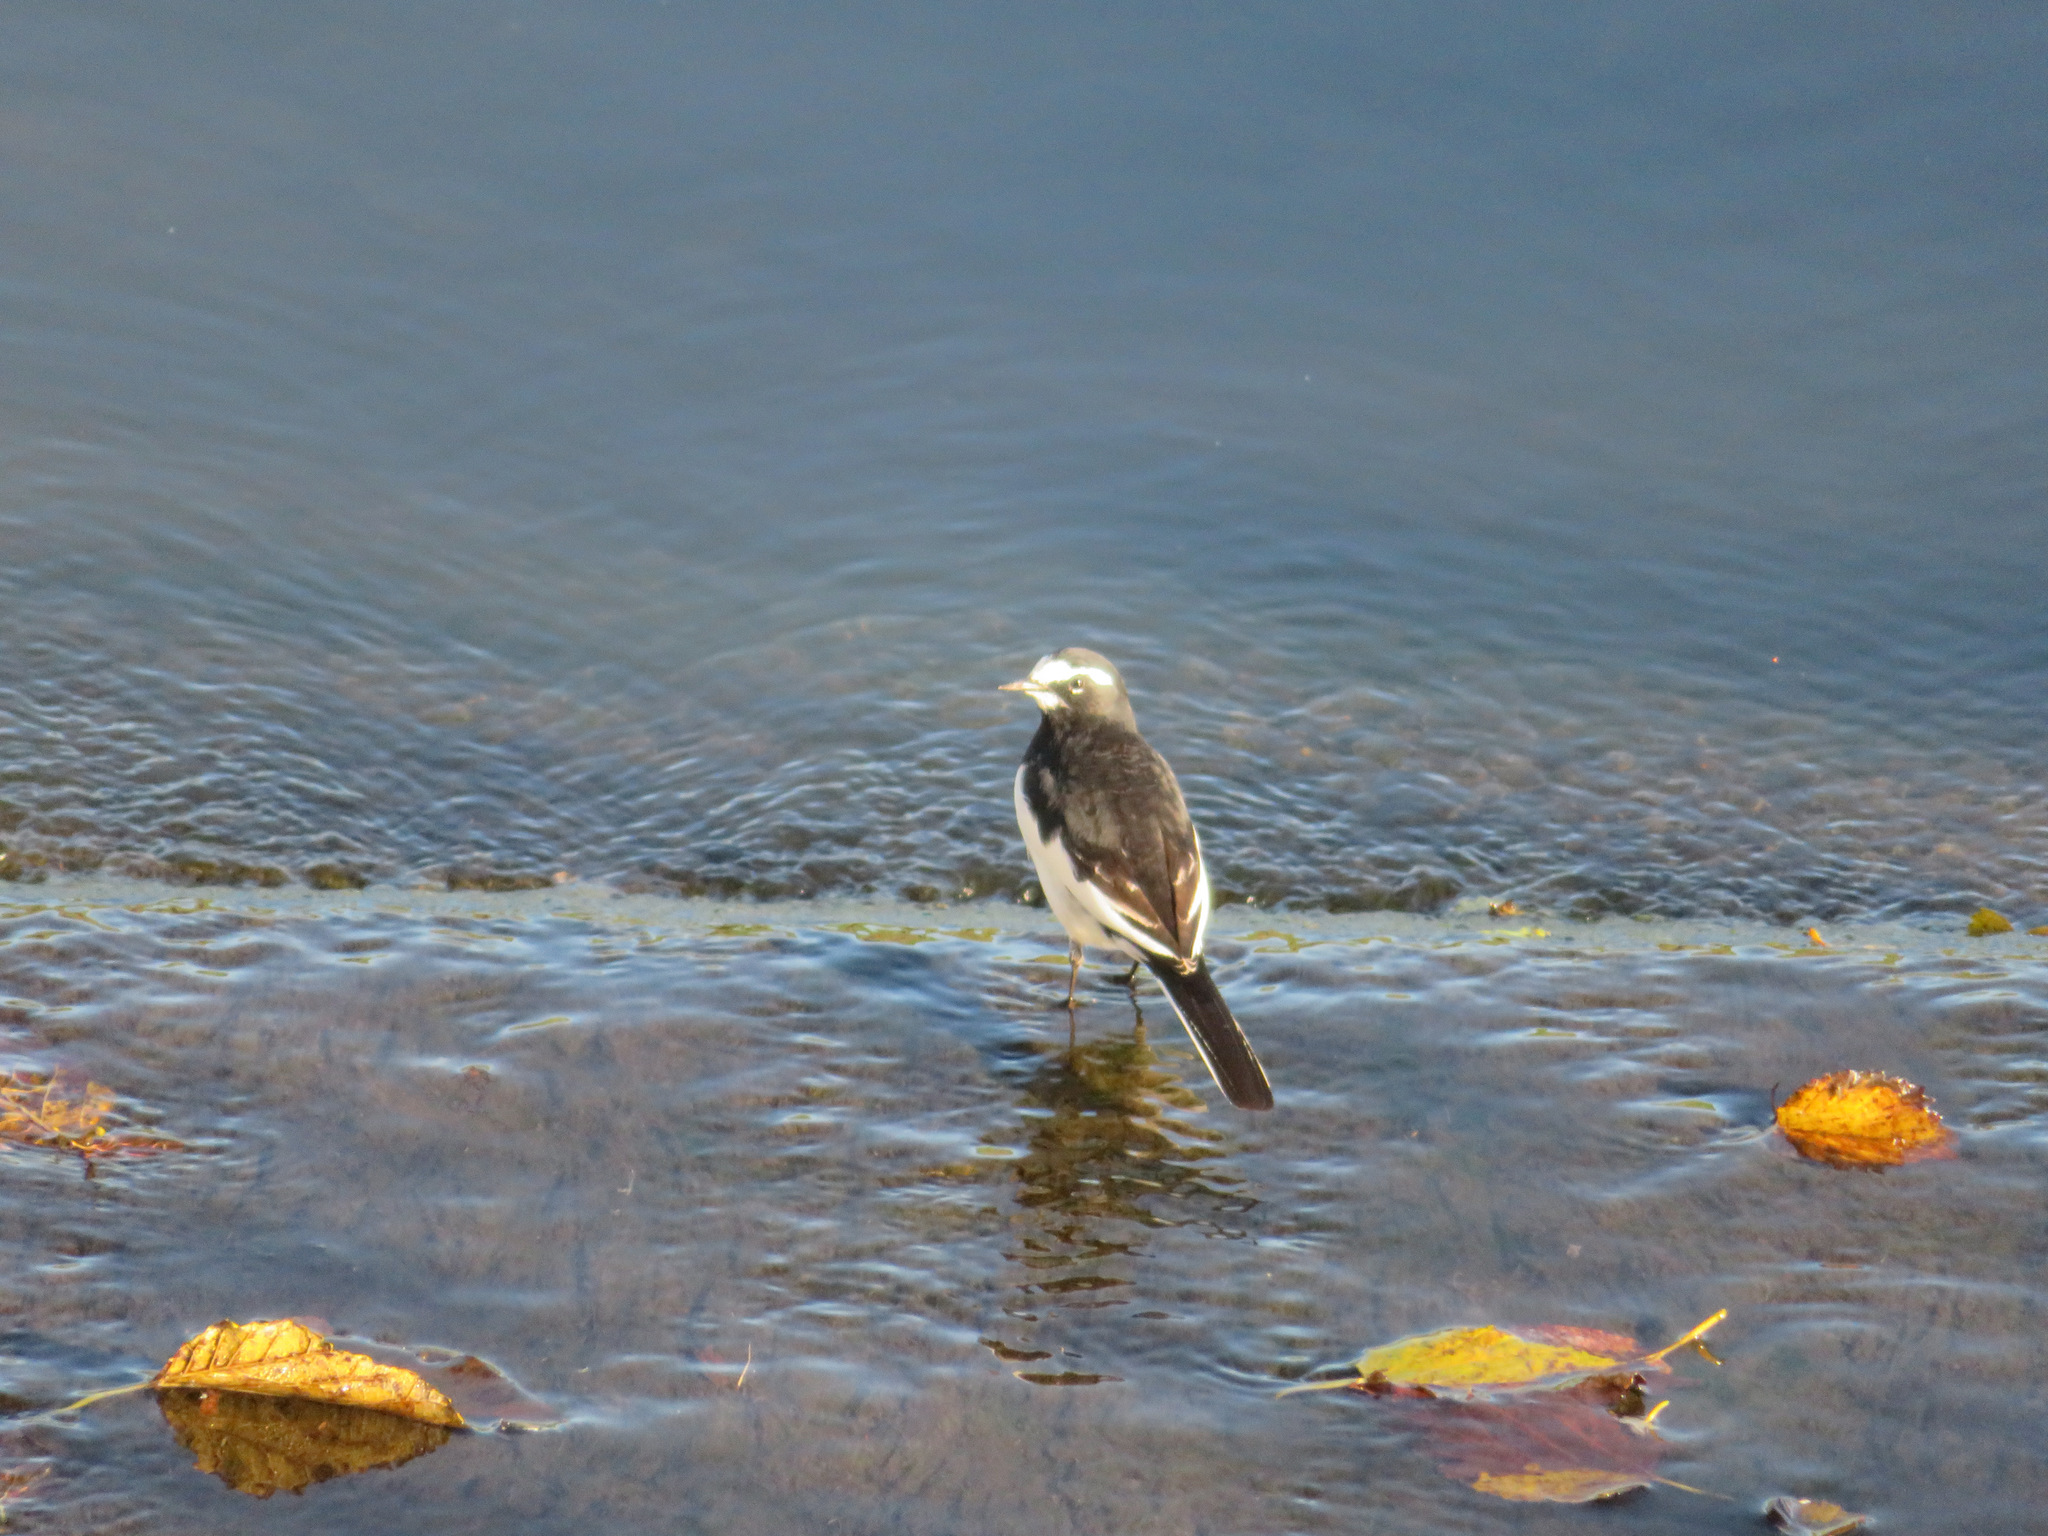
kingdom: Animalia
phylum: Chordata
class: Aves
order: Passeriformes
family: Motacillidae
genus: Motacilla
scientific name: Motacilla grandis
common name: Japanese wagtail
